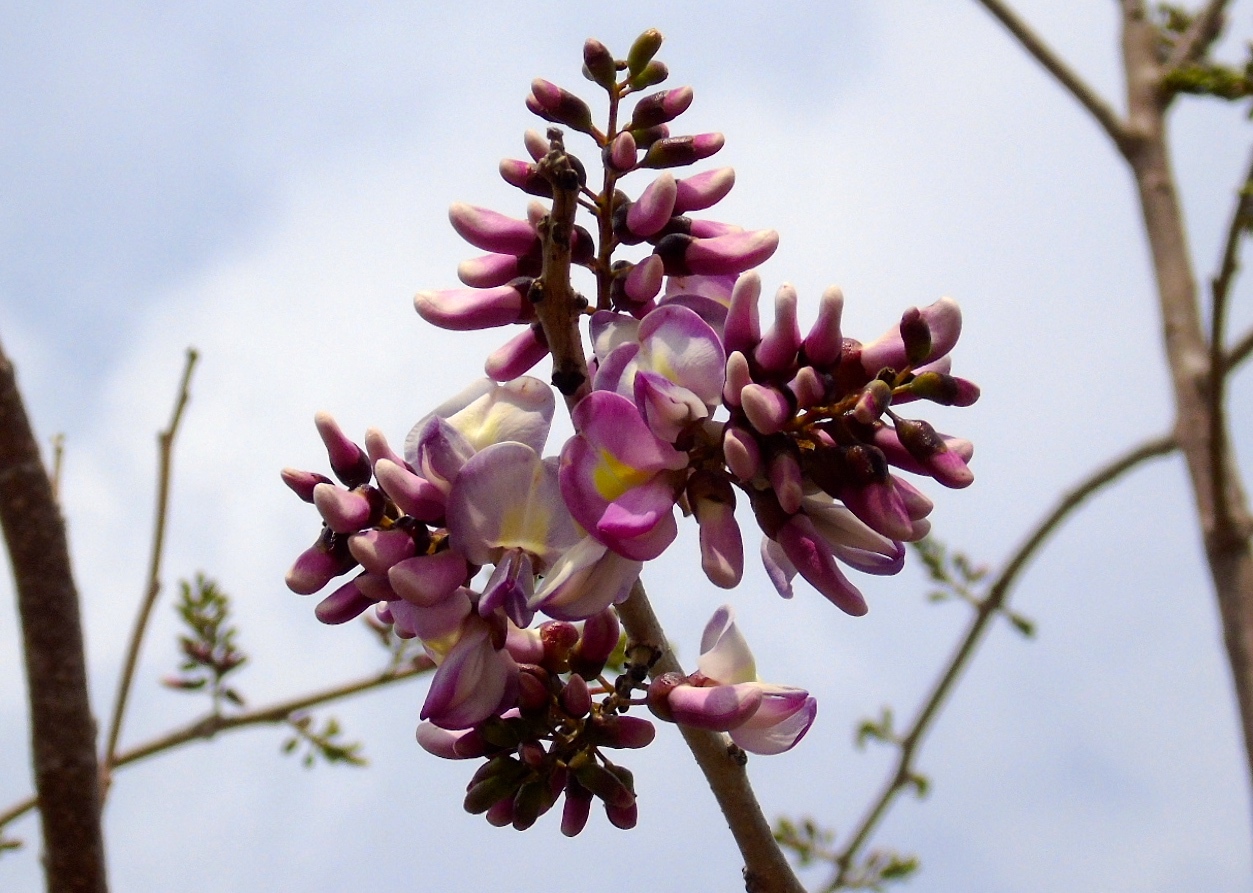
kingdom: Plantae
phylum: Tracheophyta
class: Magnoliopsida
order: Fabales
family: Fabaceae
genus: Gliricidia
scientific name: Gliricidia sepium
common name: Quickstick
